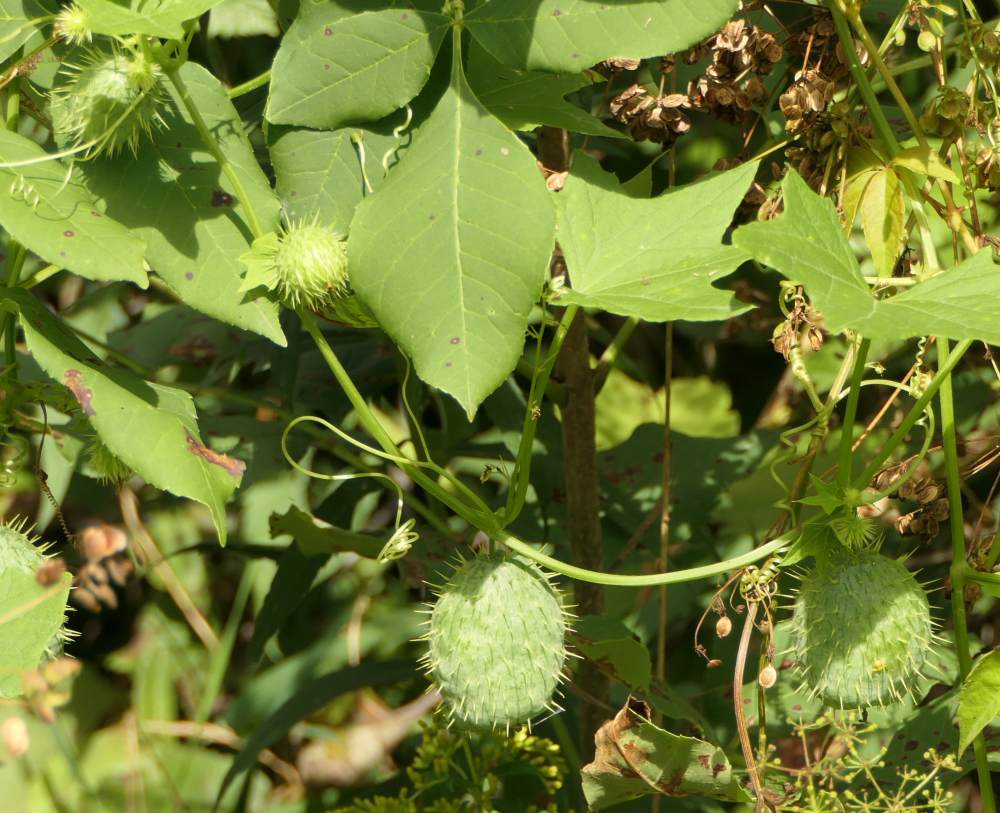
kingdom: Plantae
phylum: Tracheophyta
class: Magnoliopsida
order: Cucurbitales
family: Cucurbitaceae
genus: Echinocystis
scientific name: Echinocystis lobata
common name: Wild cucumber
